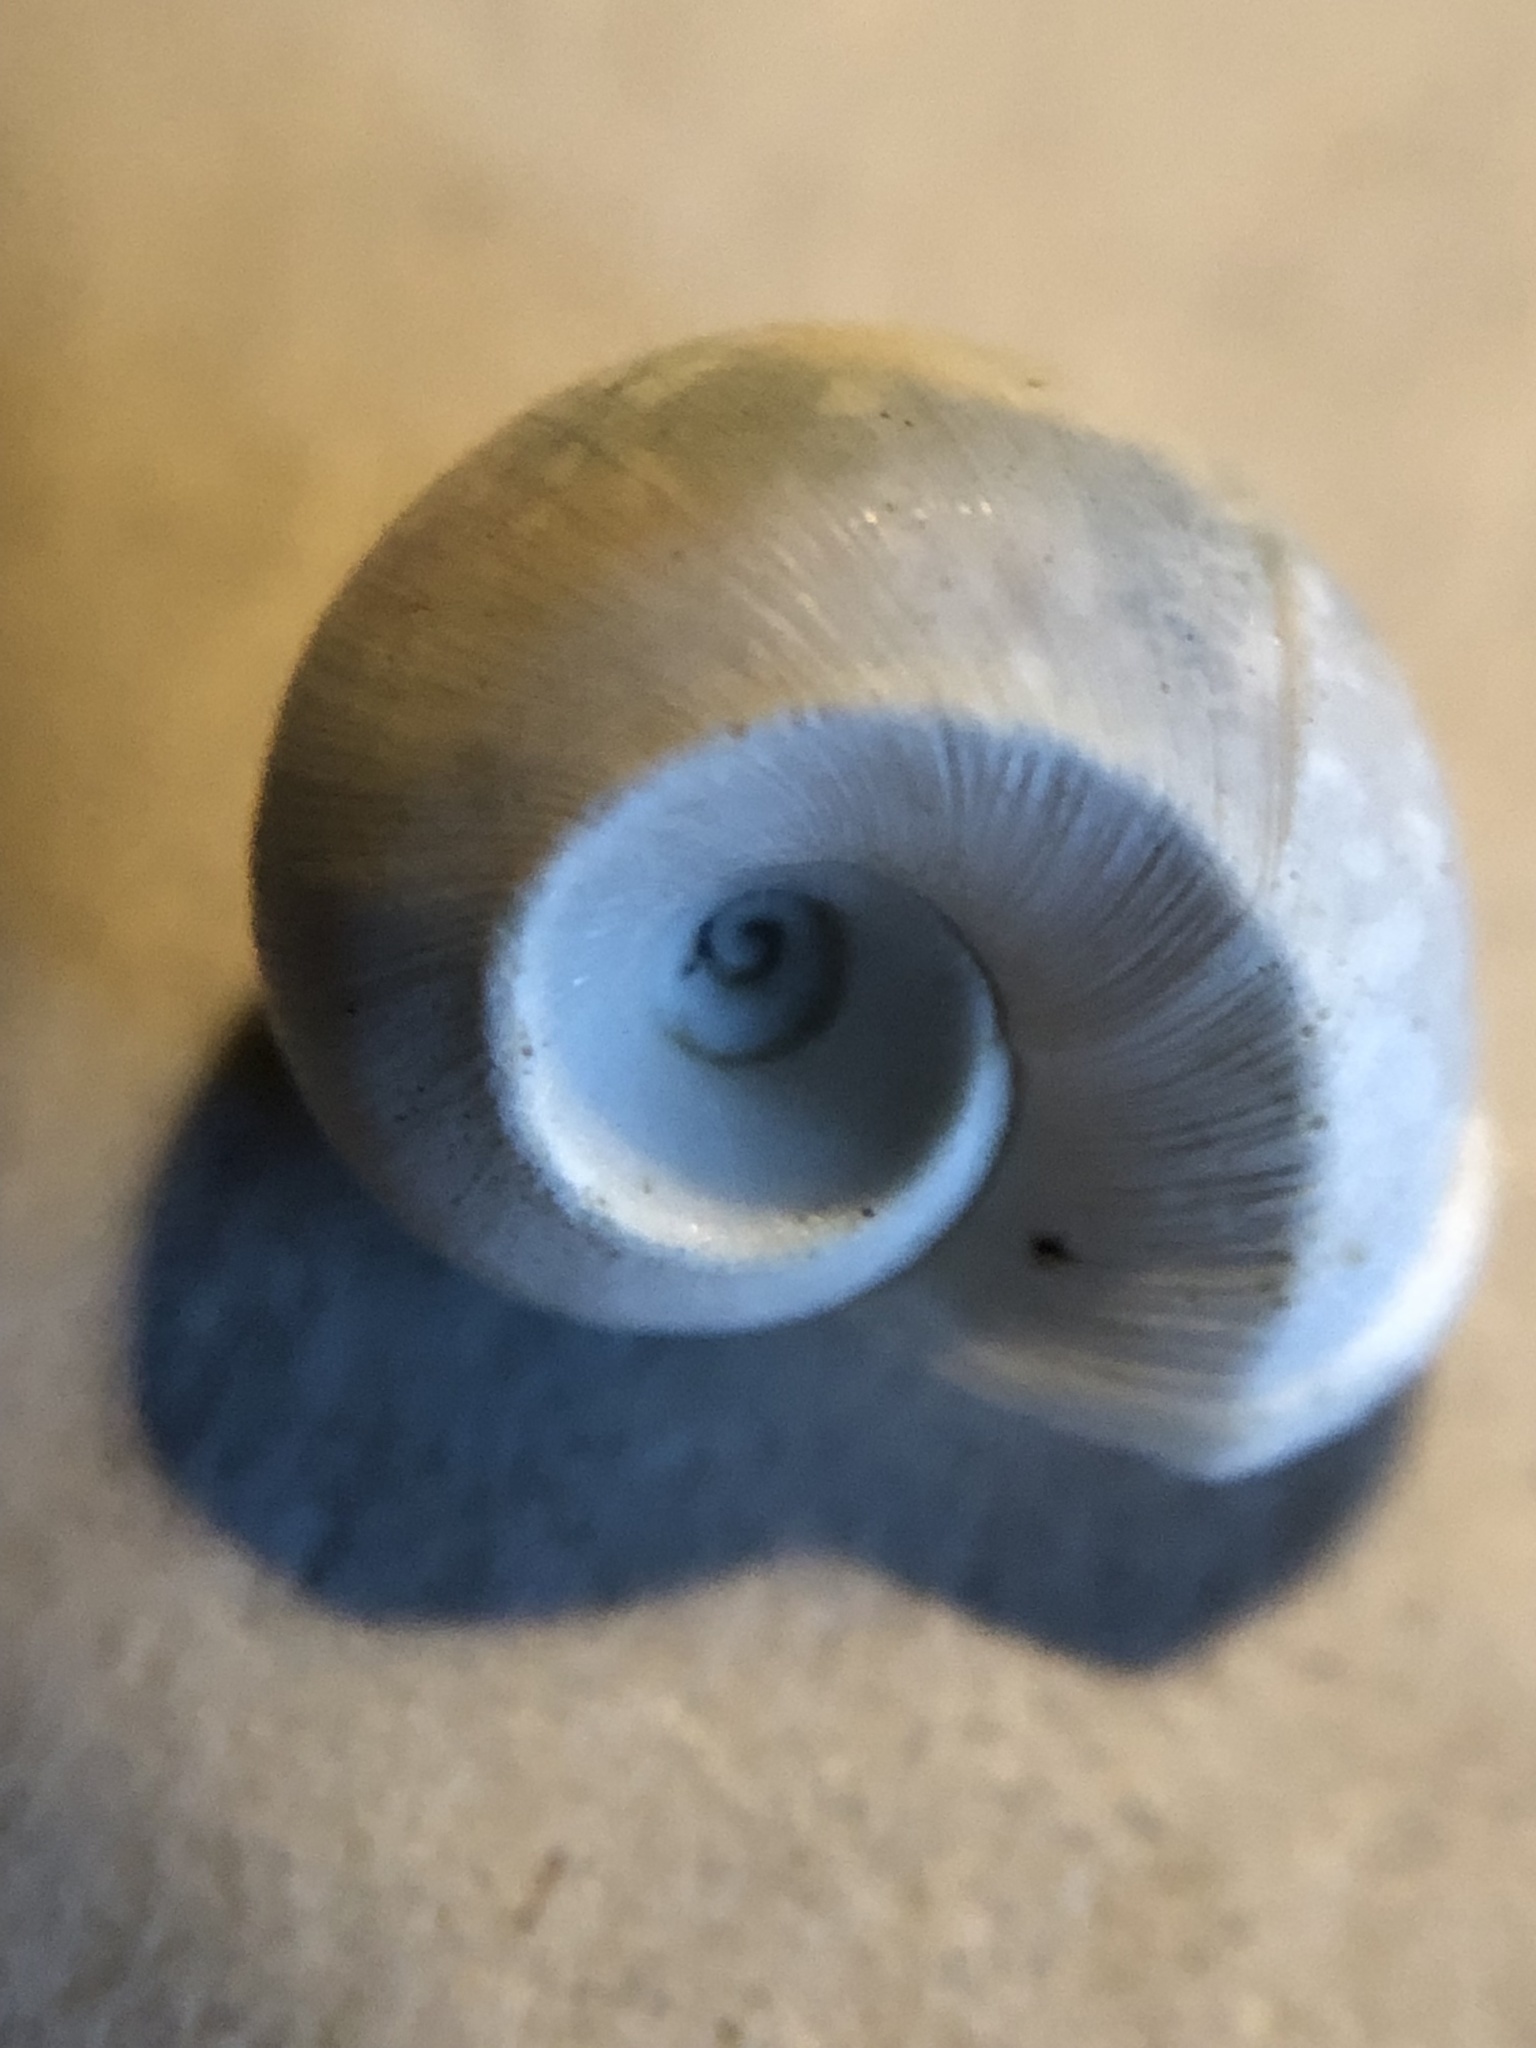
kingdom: Animalia
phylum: Mollusca
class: Gastropoda
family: Planorbidae
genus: Planorbella
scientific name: Planorbella trivolvis
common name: Marsh rams-horn
